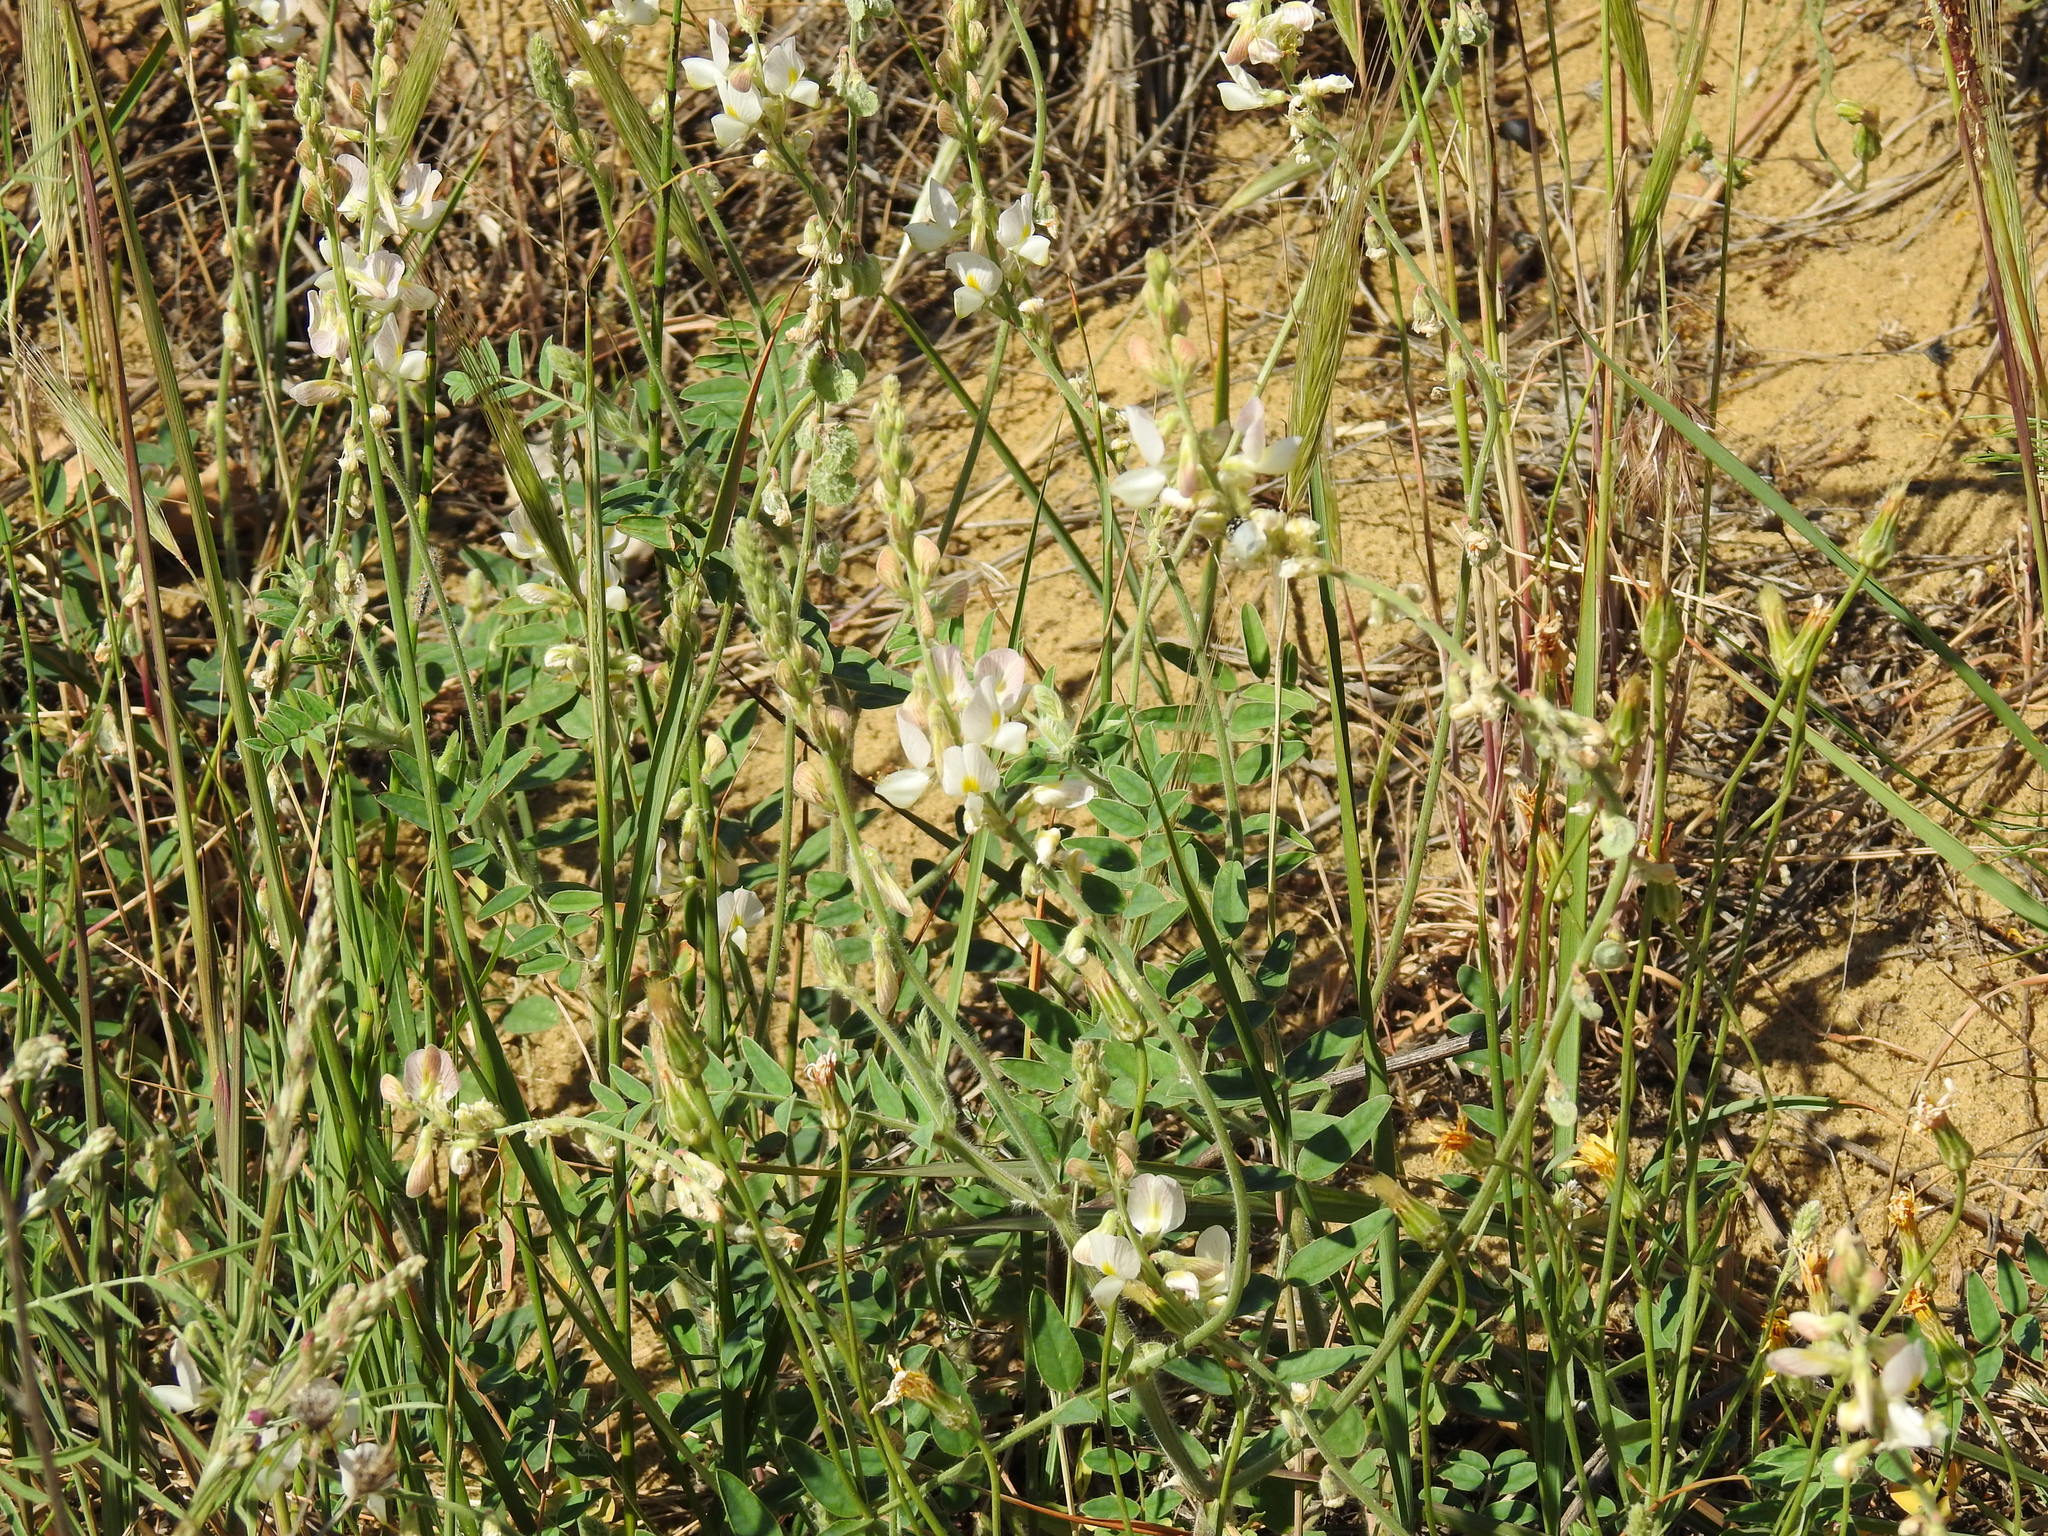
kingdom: Plantae
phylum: Tracheophyta
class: Magnoliopsida
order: Fabales
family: Fabaceae
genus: Onobrychis
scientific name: Onobrychis majorovii
